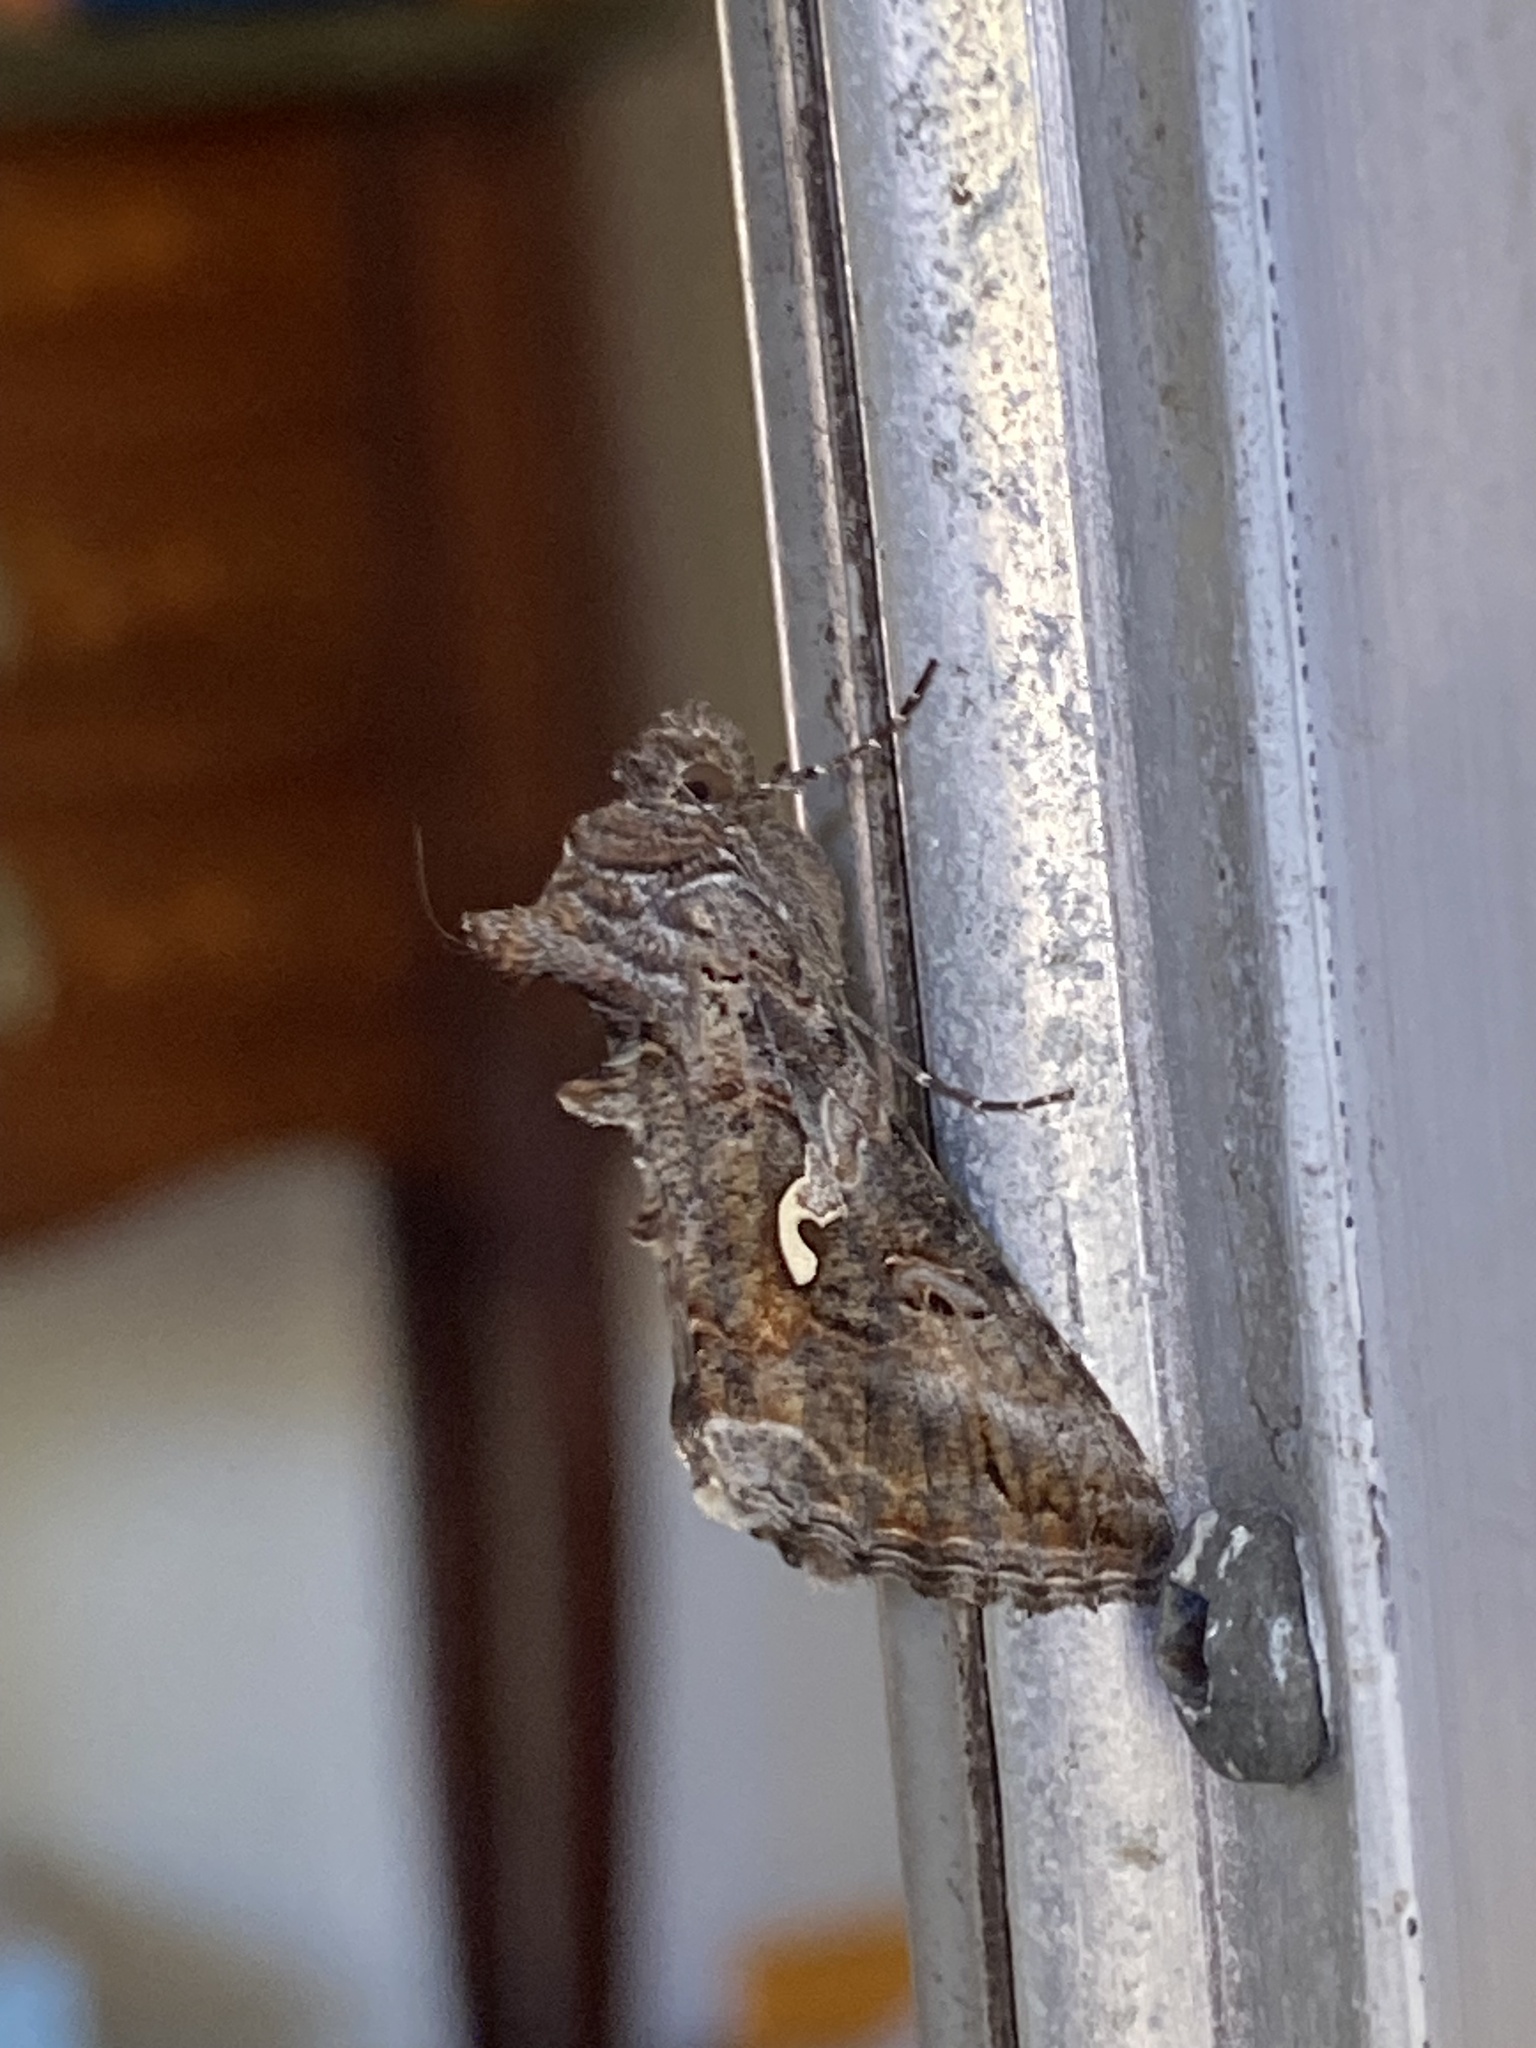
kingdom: Animalia
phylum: Arthropoda
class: Insecta
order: Lepidoptera
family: Noctuidae
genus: Autographa
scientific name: Autographa californica
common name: Alfalfa looper
